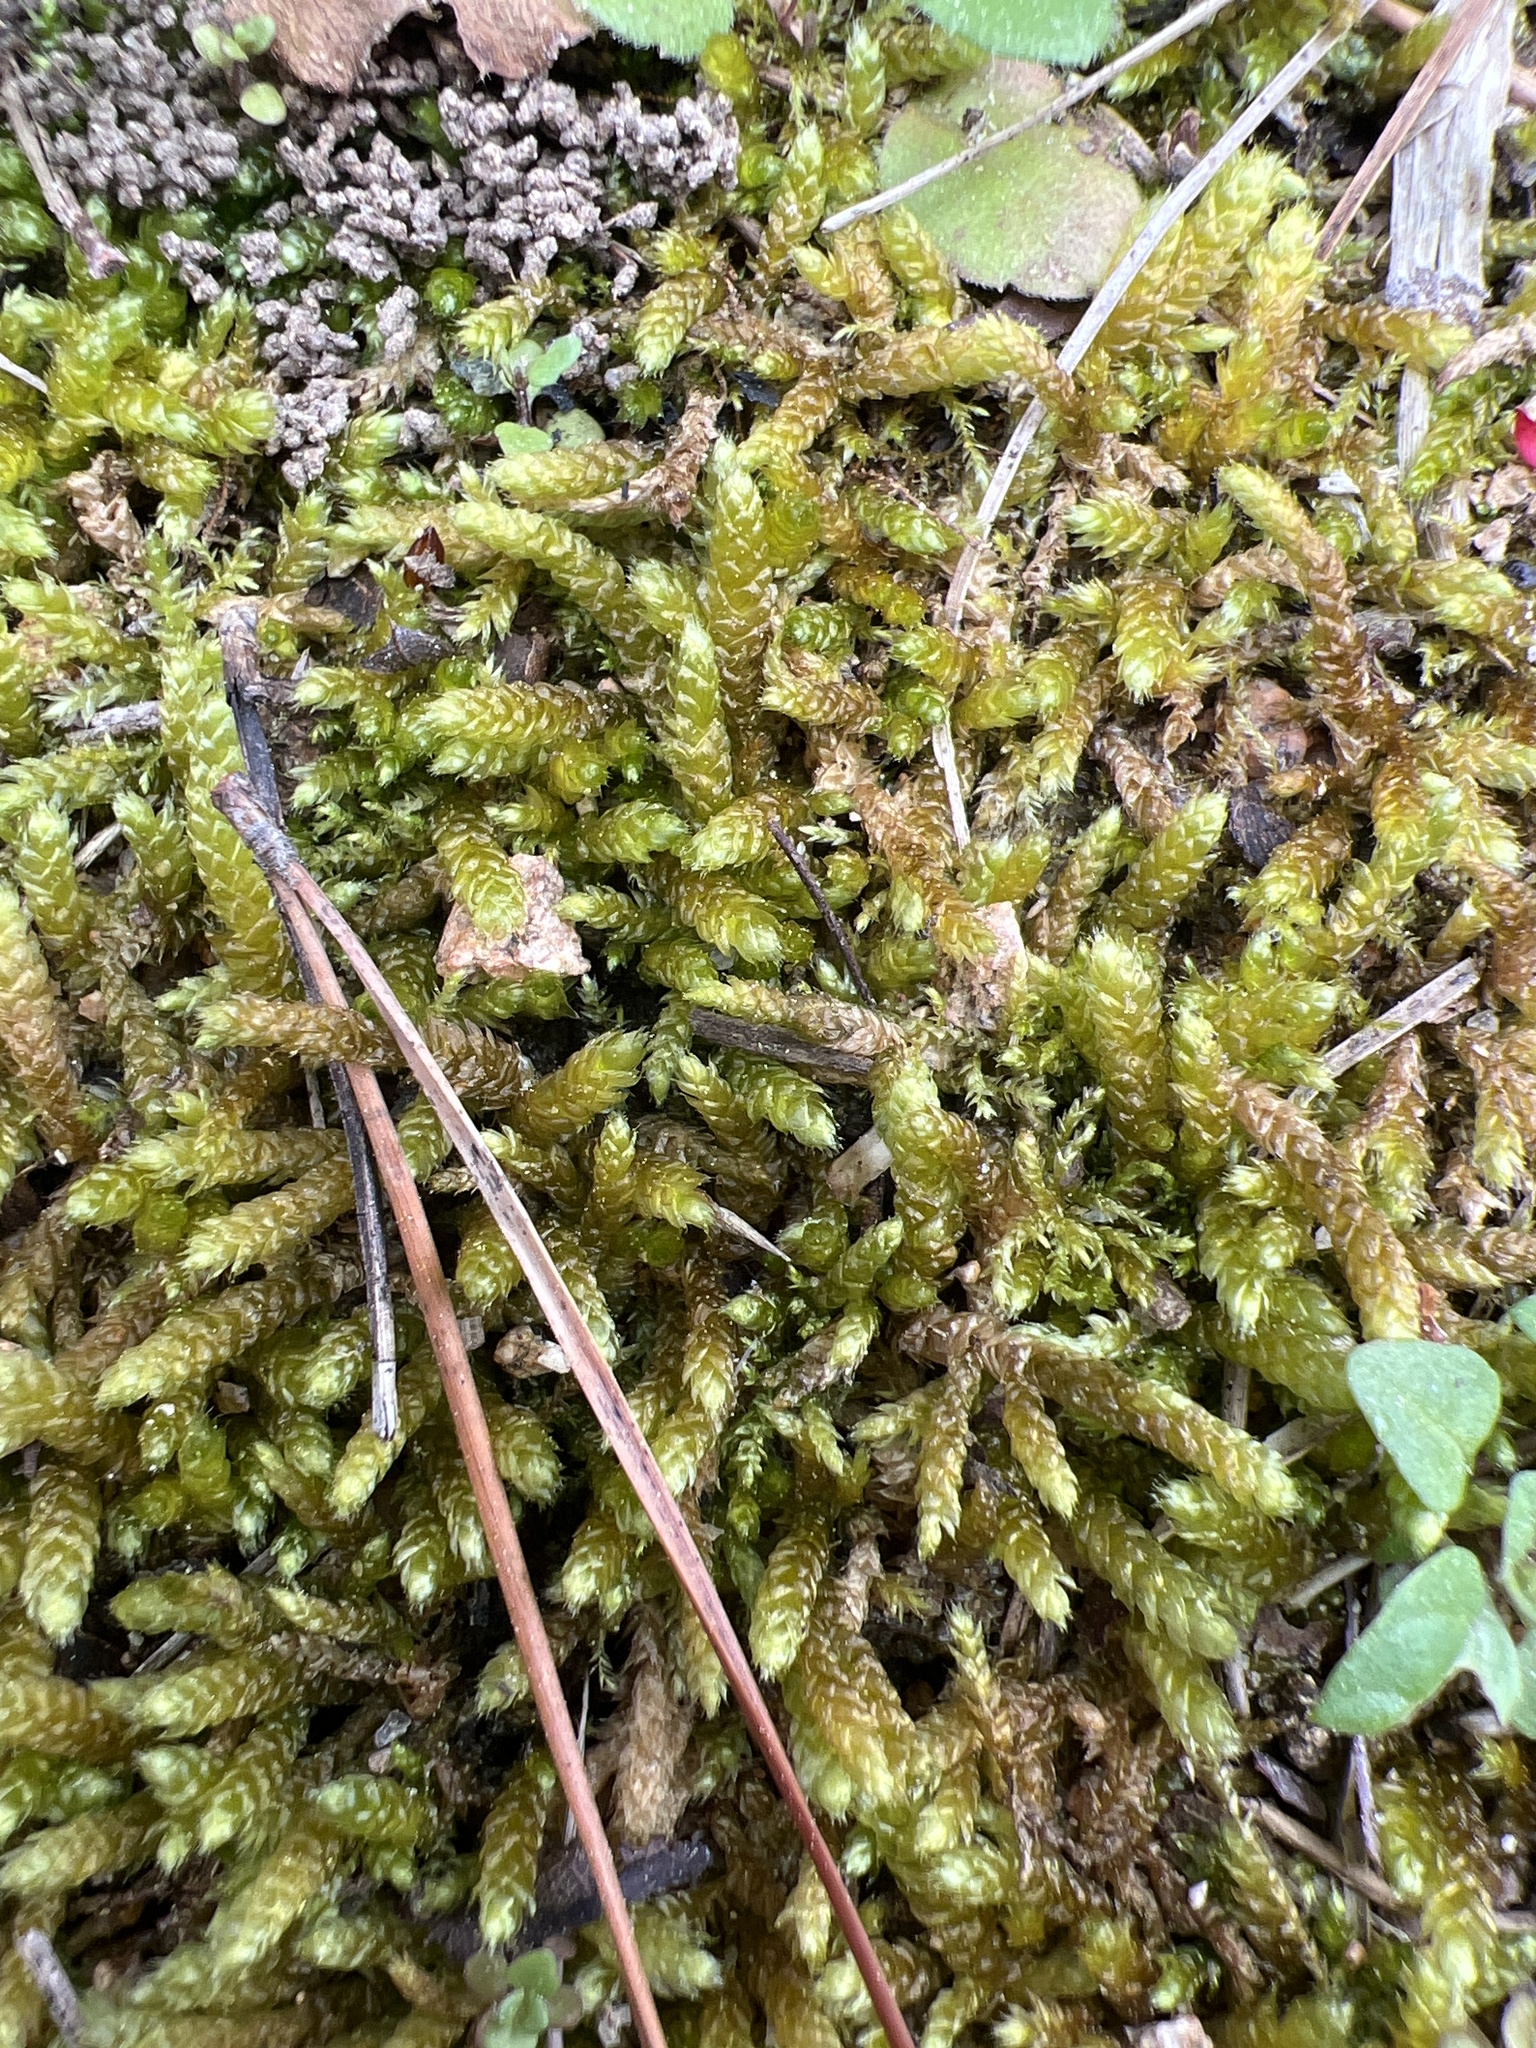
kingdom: Plantae
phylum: Bryophyta
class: Bryopsida
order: Hypnales
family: Brachytheciaceae
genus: Bryoandersonia
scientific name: Bryoandersonia illecebra
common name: Spoon-leaved moss
